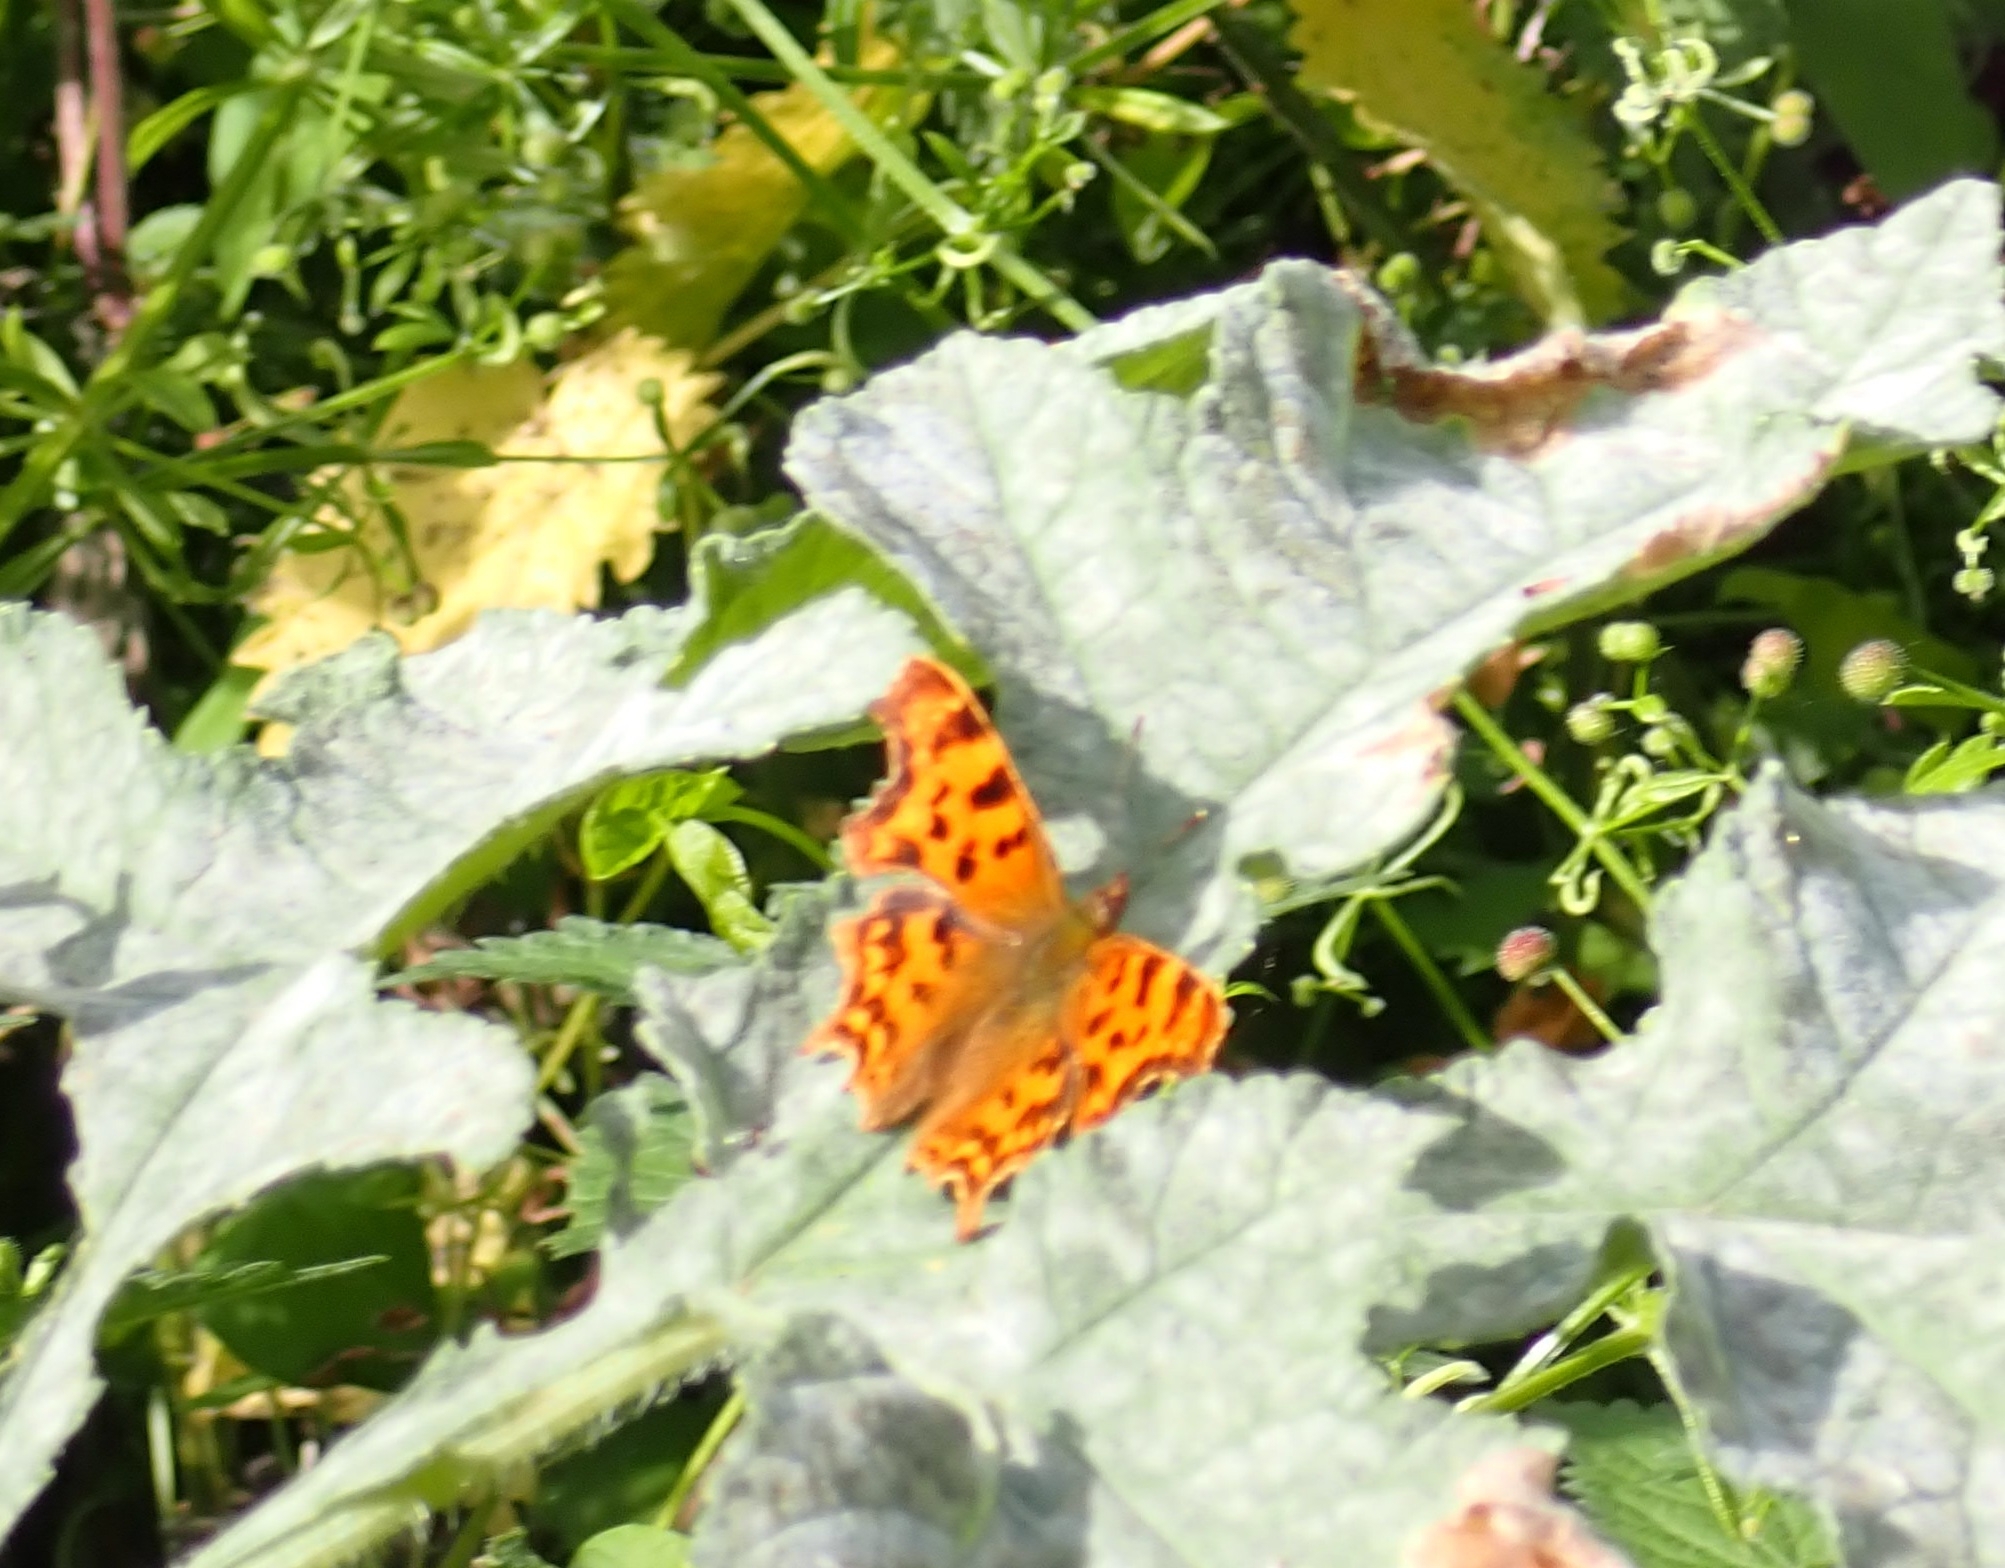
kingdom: Animalia
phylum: Arthropoda
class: Insecta
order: Lepidoptera
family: Nymphalidae
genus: Polygonia
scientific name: Polygonia c-album
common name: Comma
